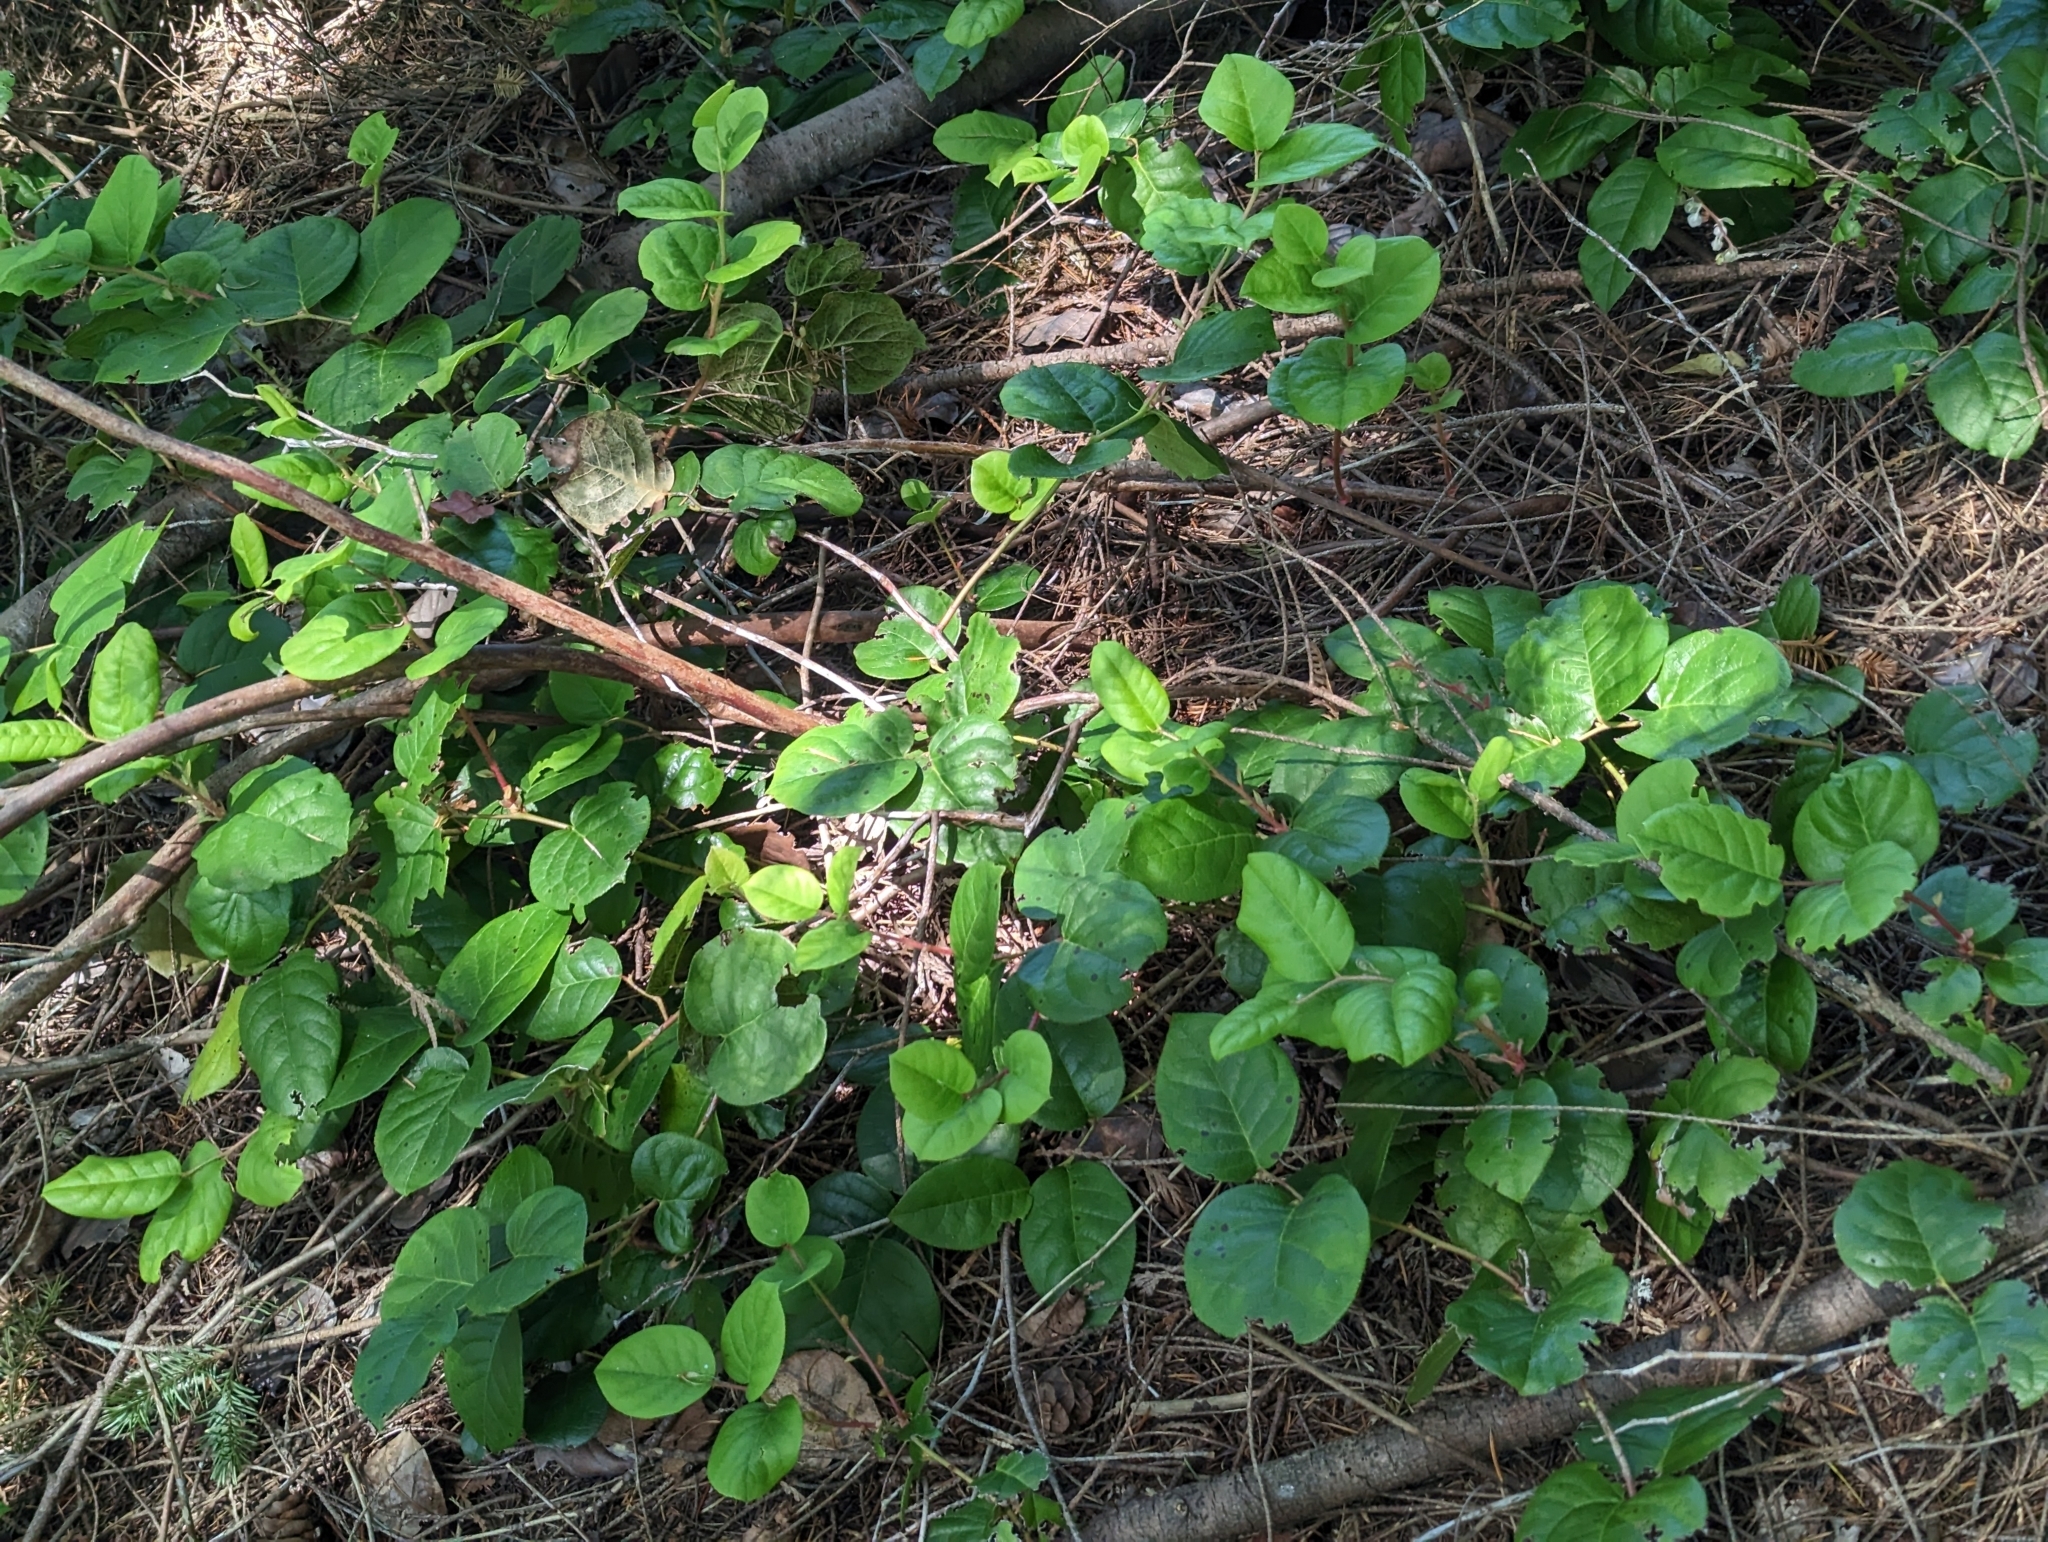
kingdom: Plantae
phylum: Tracheophyta
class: Magnoliopsida
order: Ericales
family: Ericaceae
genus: Gaultheria
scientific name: Gaultheria shallon
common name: Shallon
